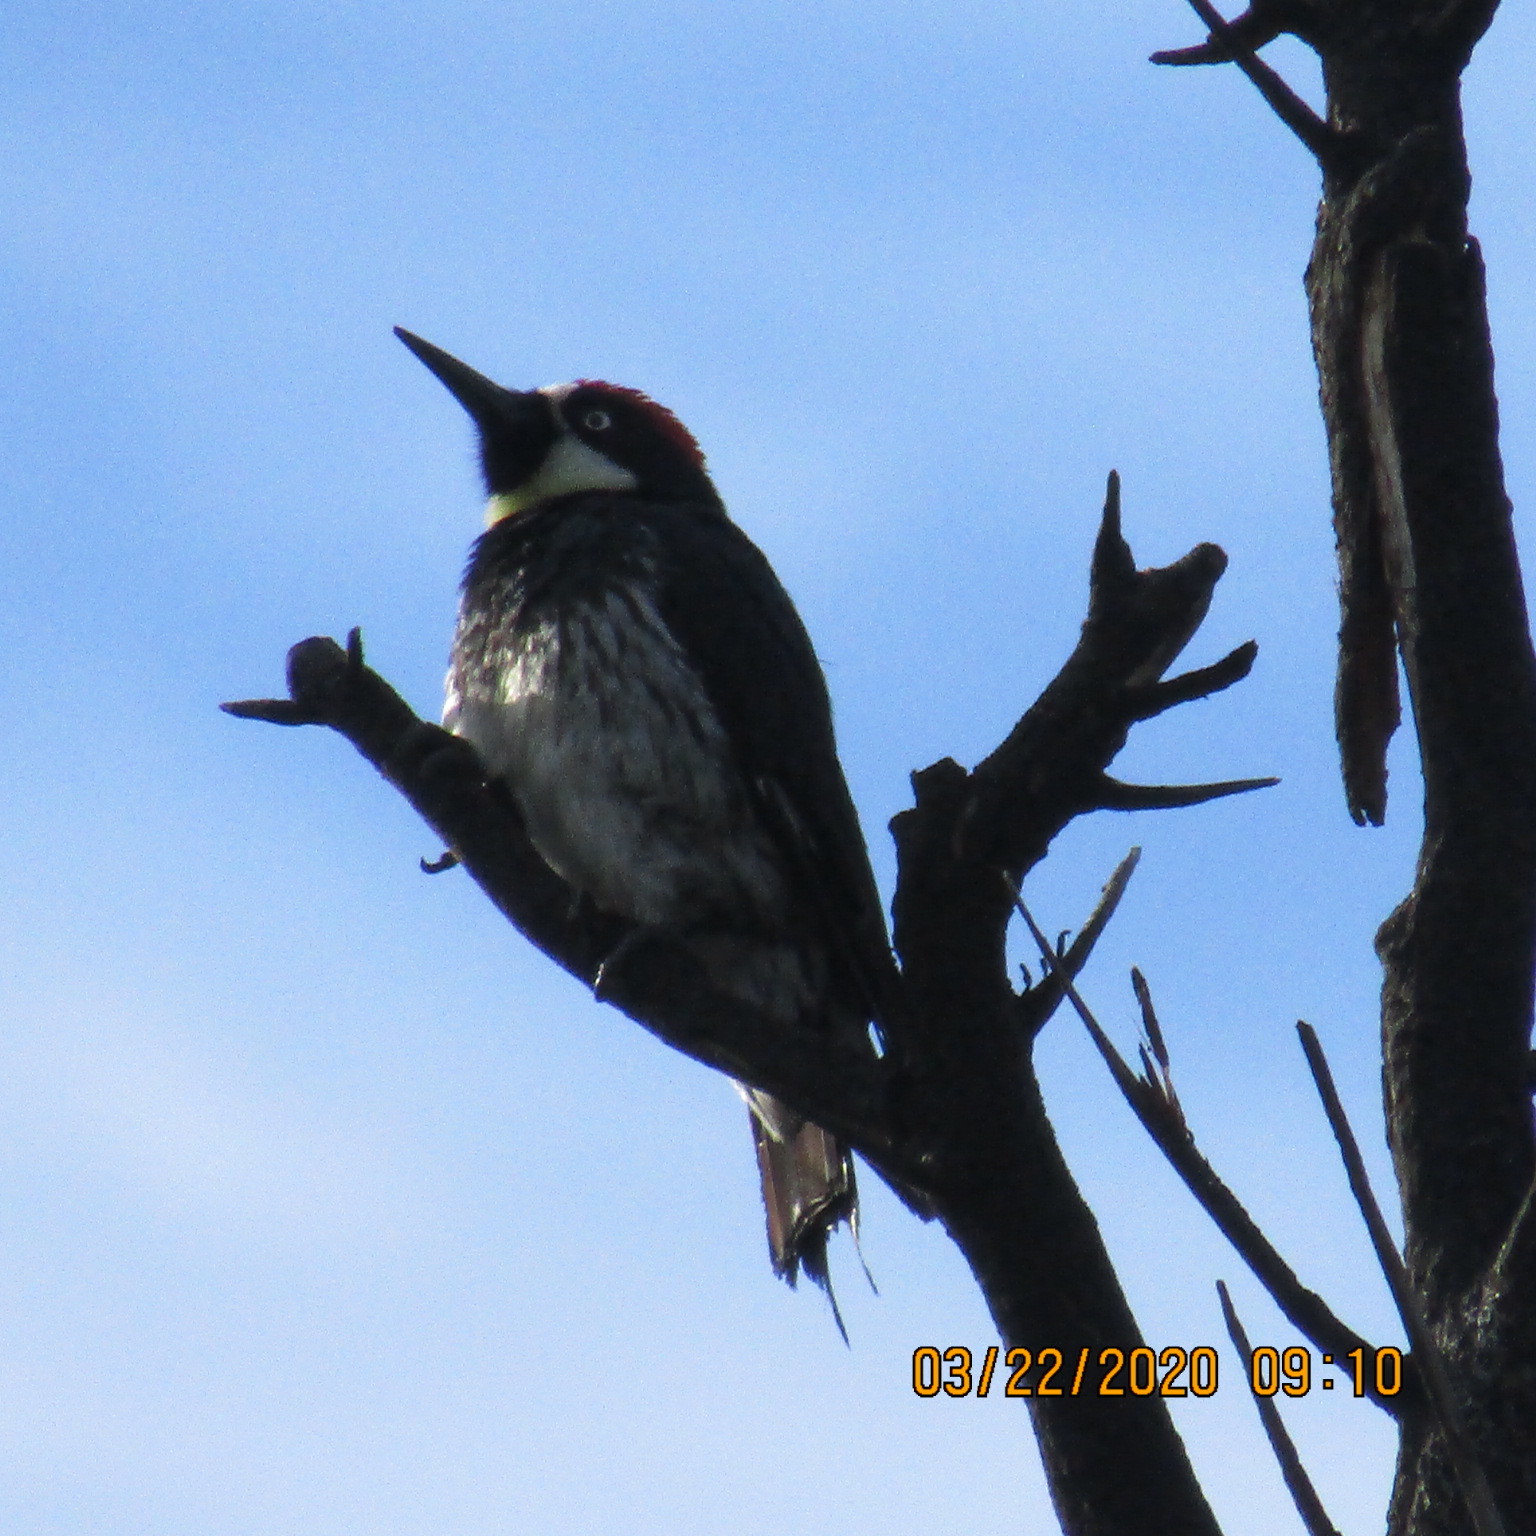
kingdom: Animalia
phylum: Chordata
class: Aves
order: Piciformes
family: Picidae
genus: Melanerpes
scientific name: Melanerpes formicivorus
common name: Acorn woodpecker
